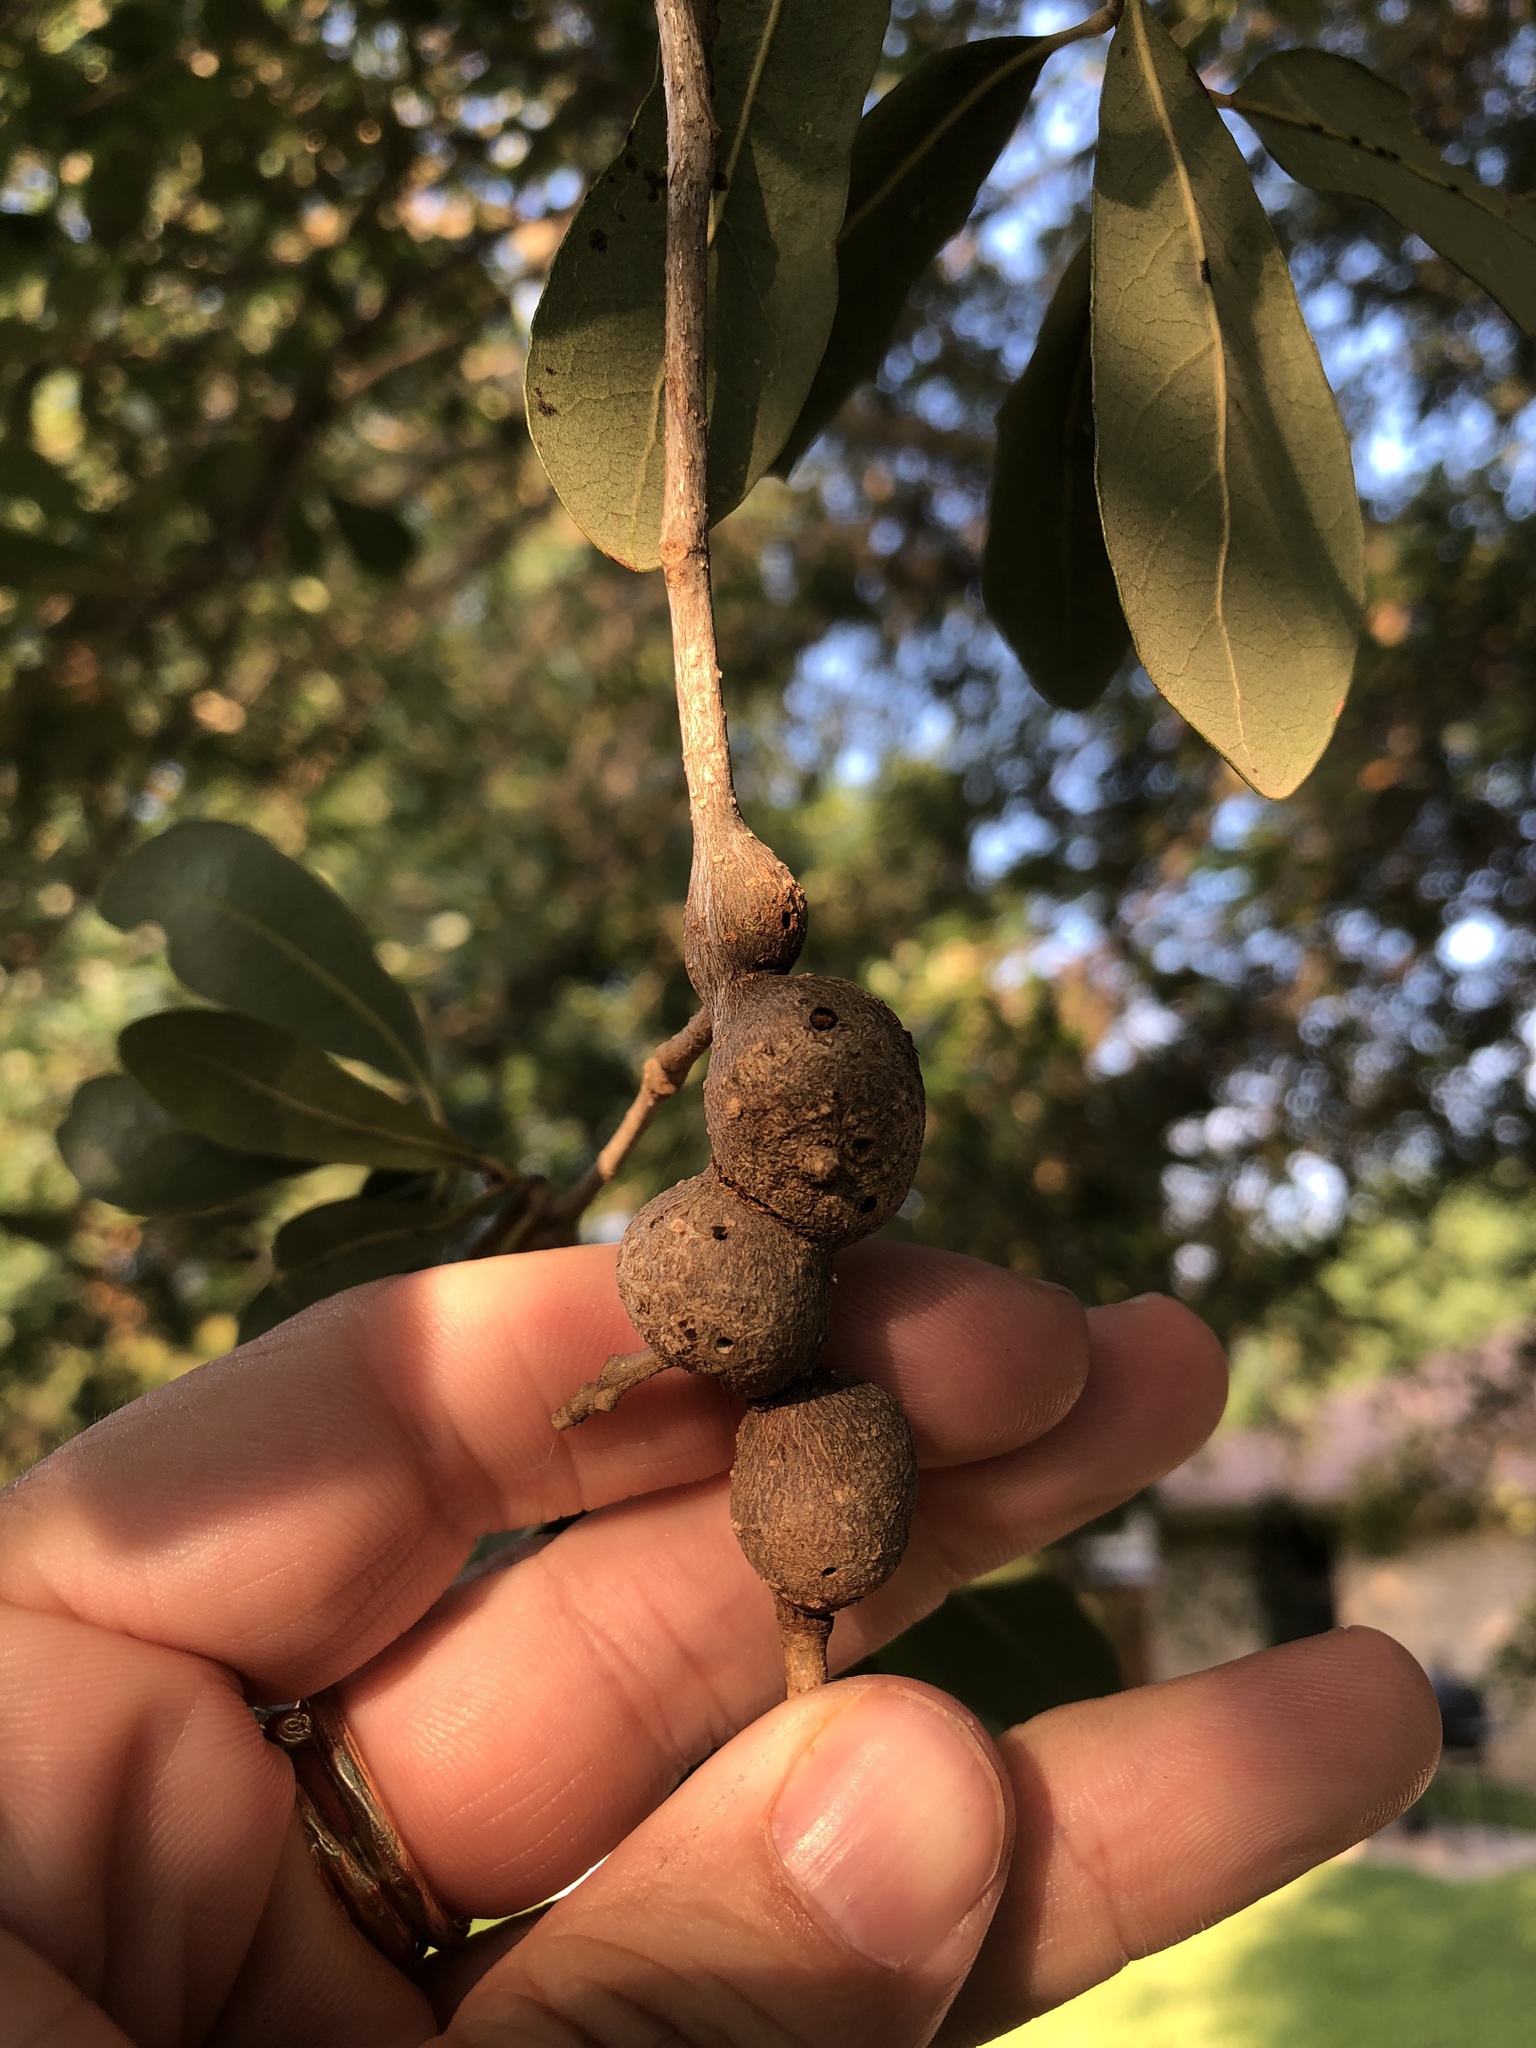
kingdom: Animalia
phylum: Arthropoda
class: Insecta
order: Hymenoptera
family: Cynipidae
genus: Callirhytis
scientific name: Callirhytis
